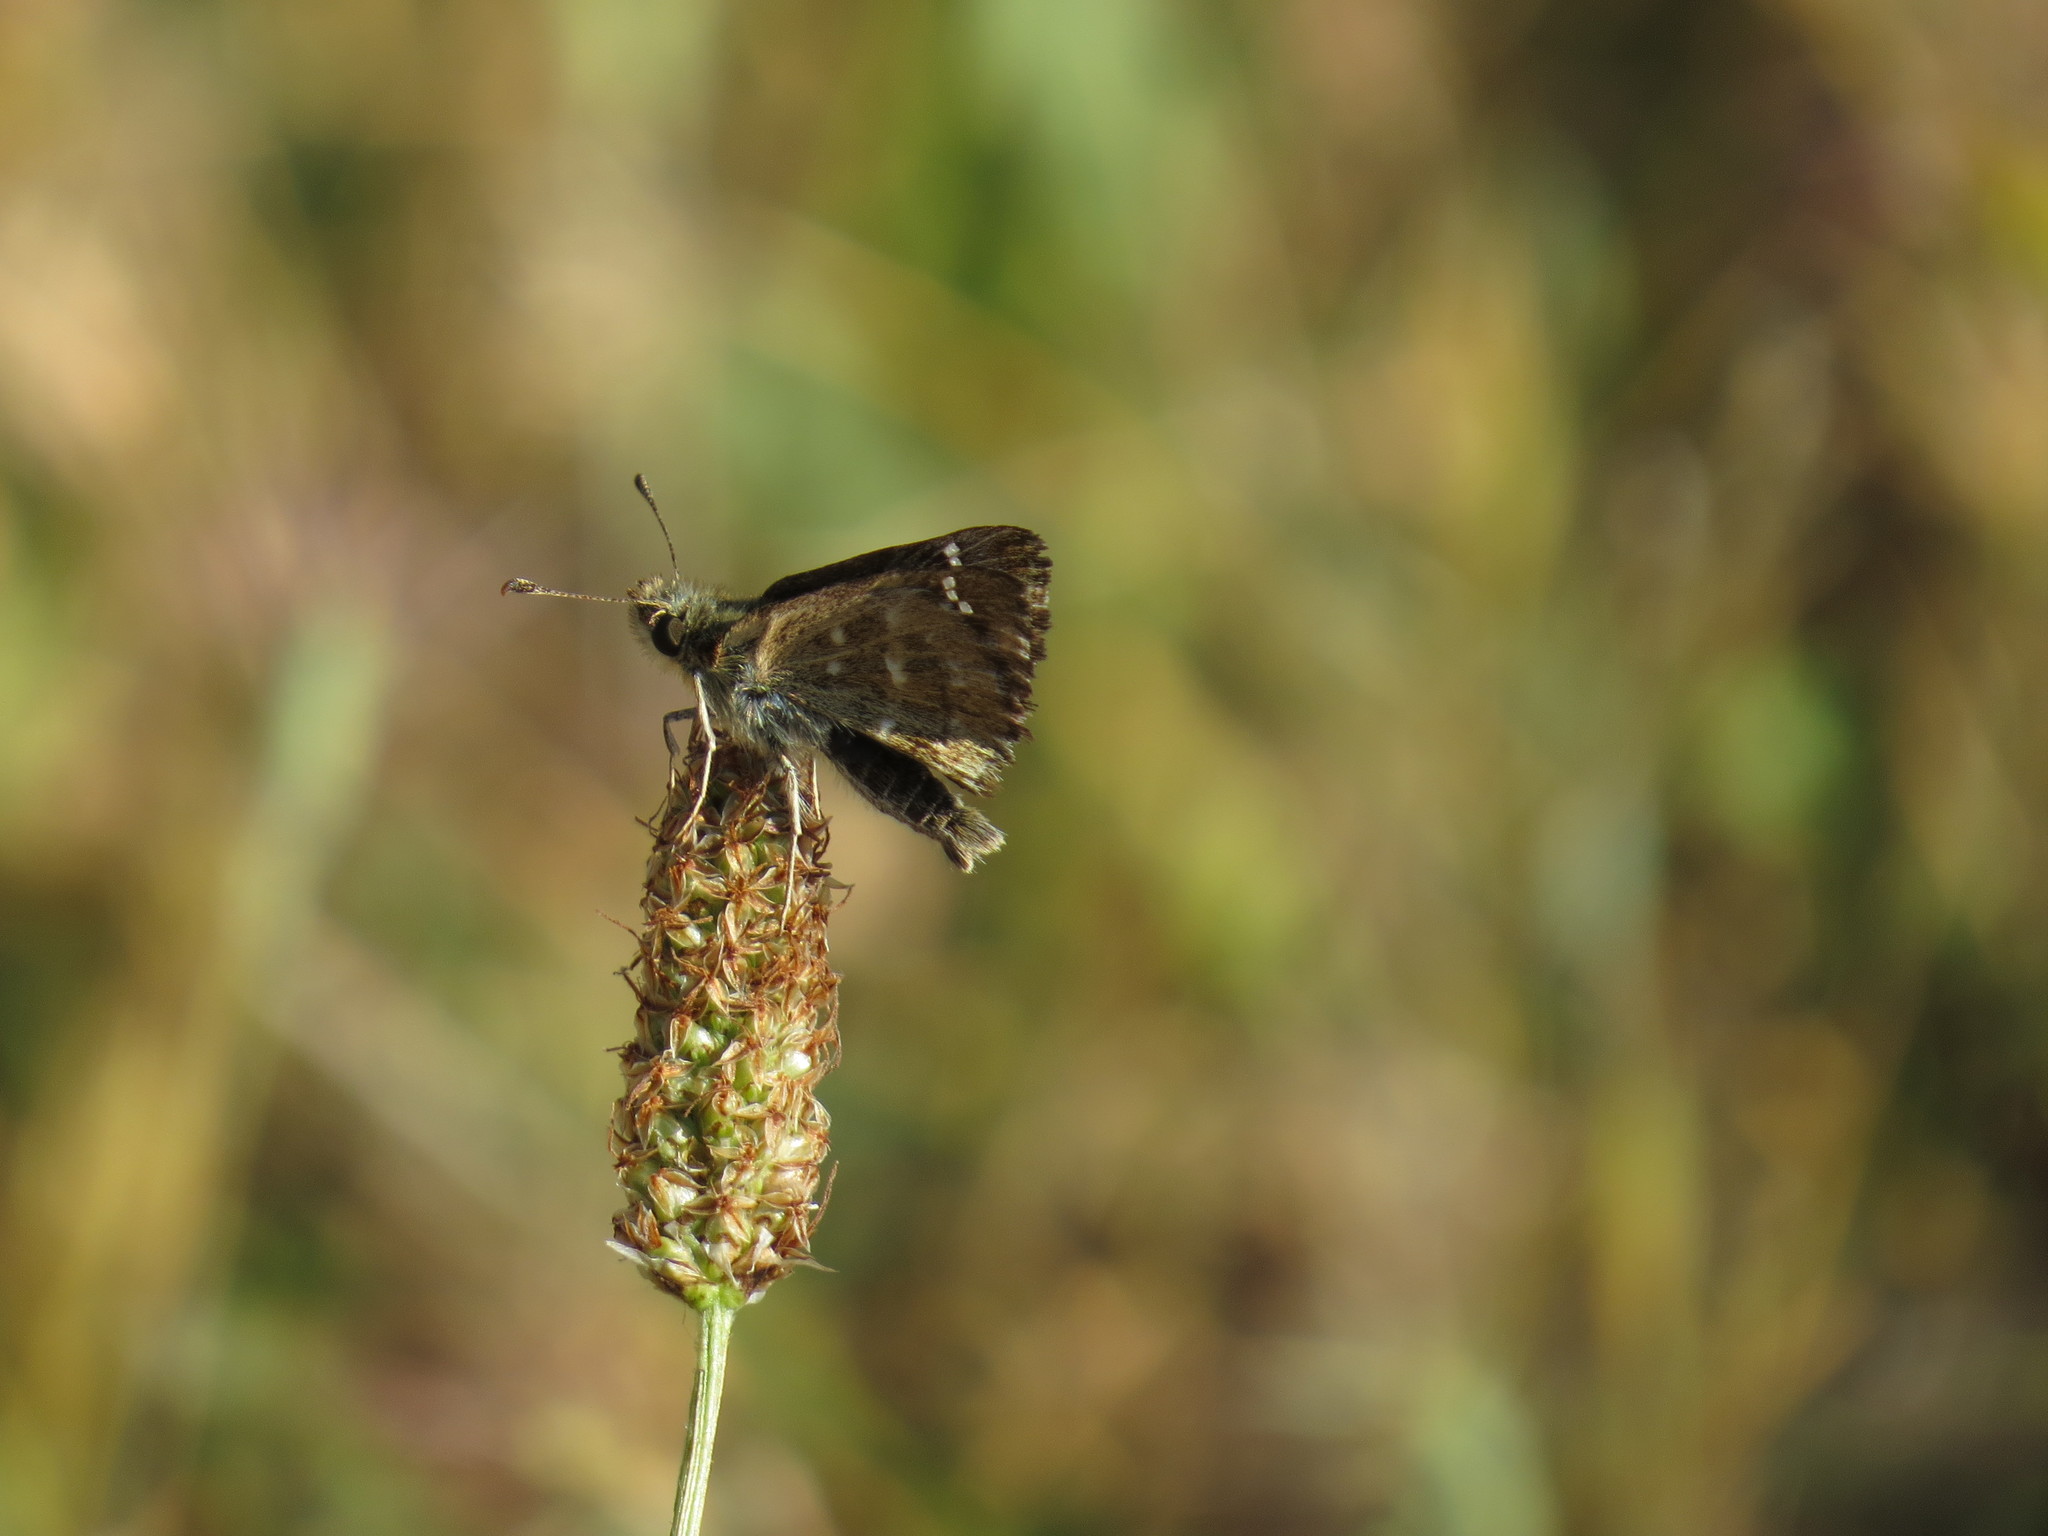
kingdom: Animalia
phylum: Arthropoda
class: Insecta
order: Lepidoptera
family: Hesperiidae
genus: Carcharodus
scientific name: Carcharodus alceae
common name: Mallow skipper
